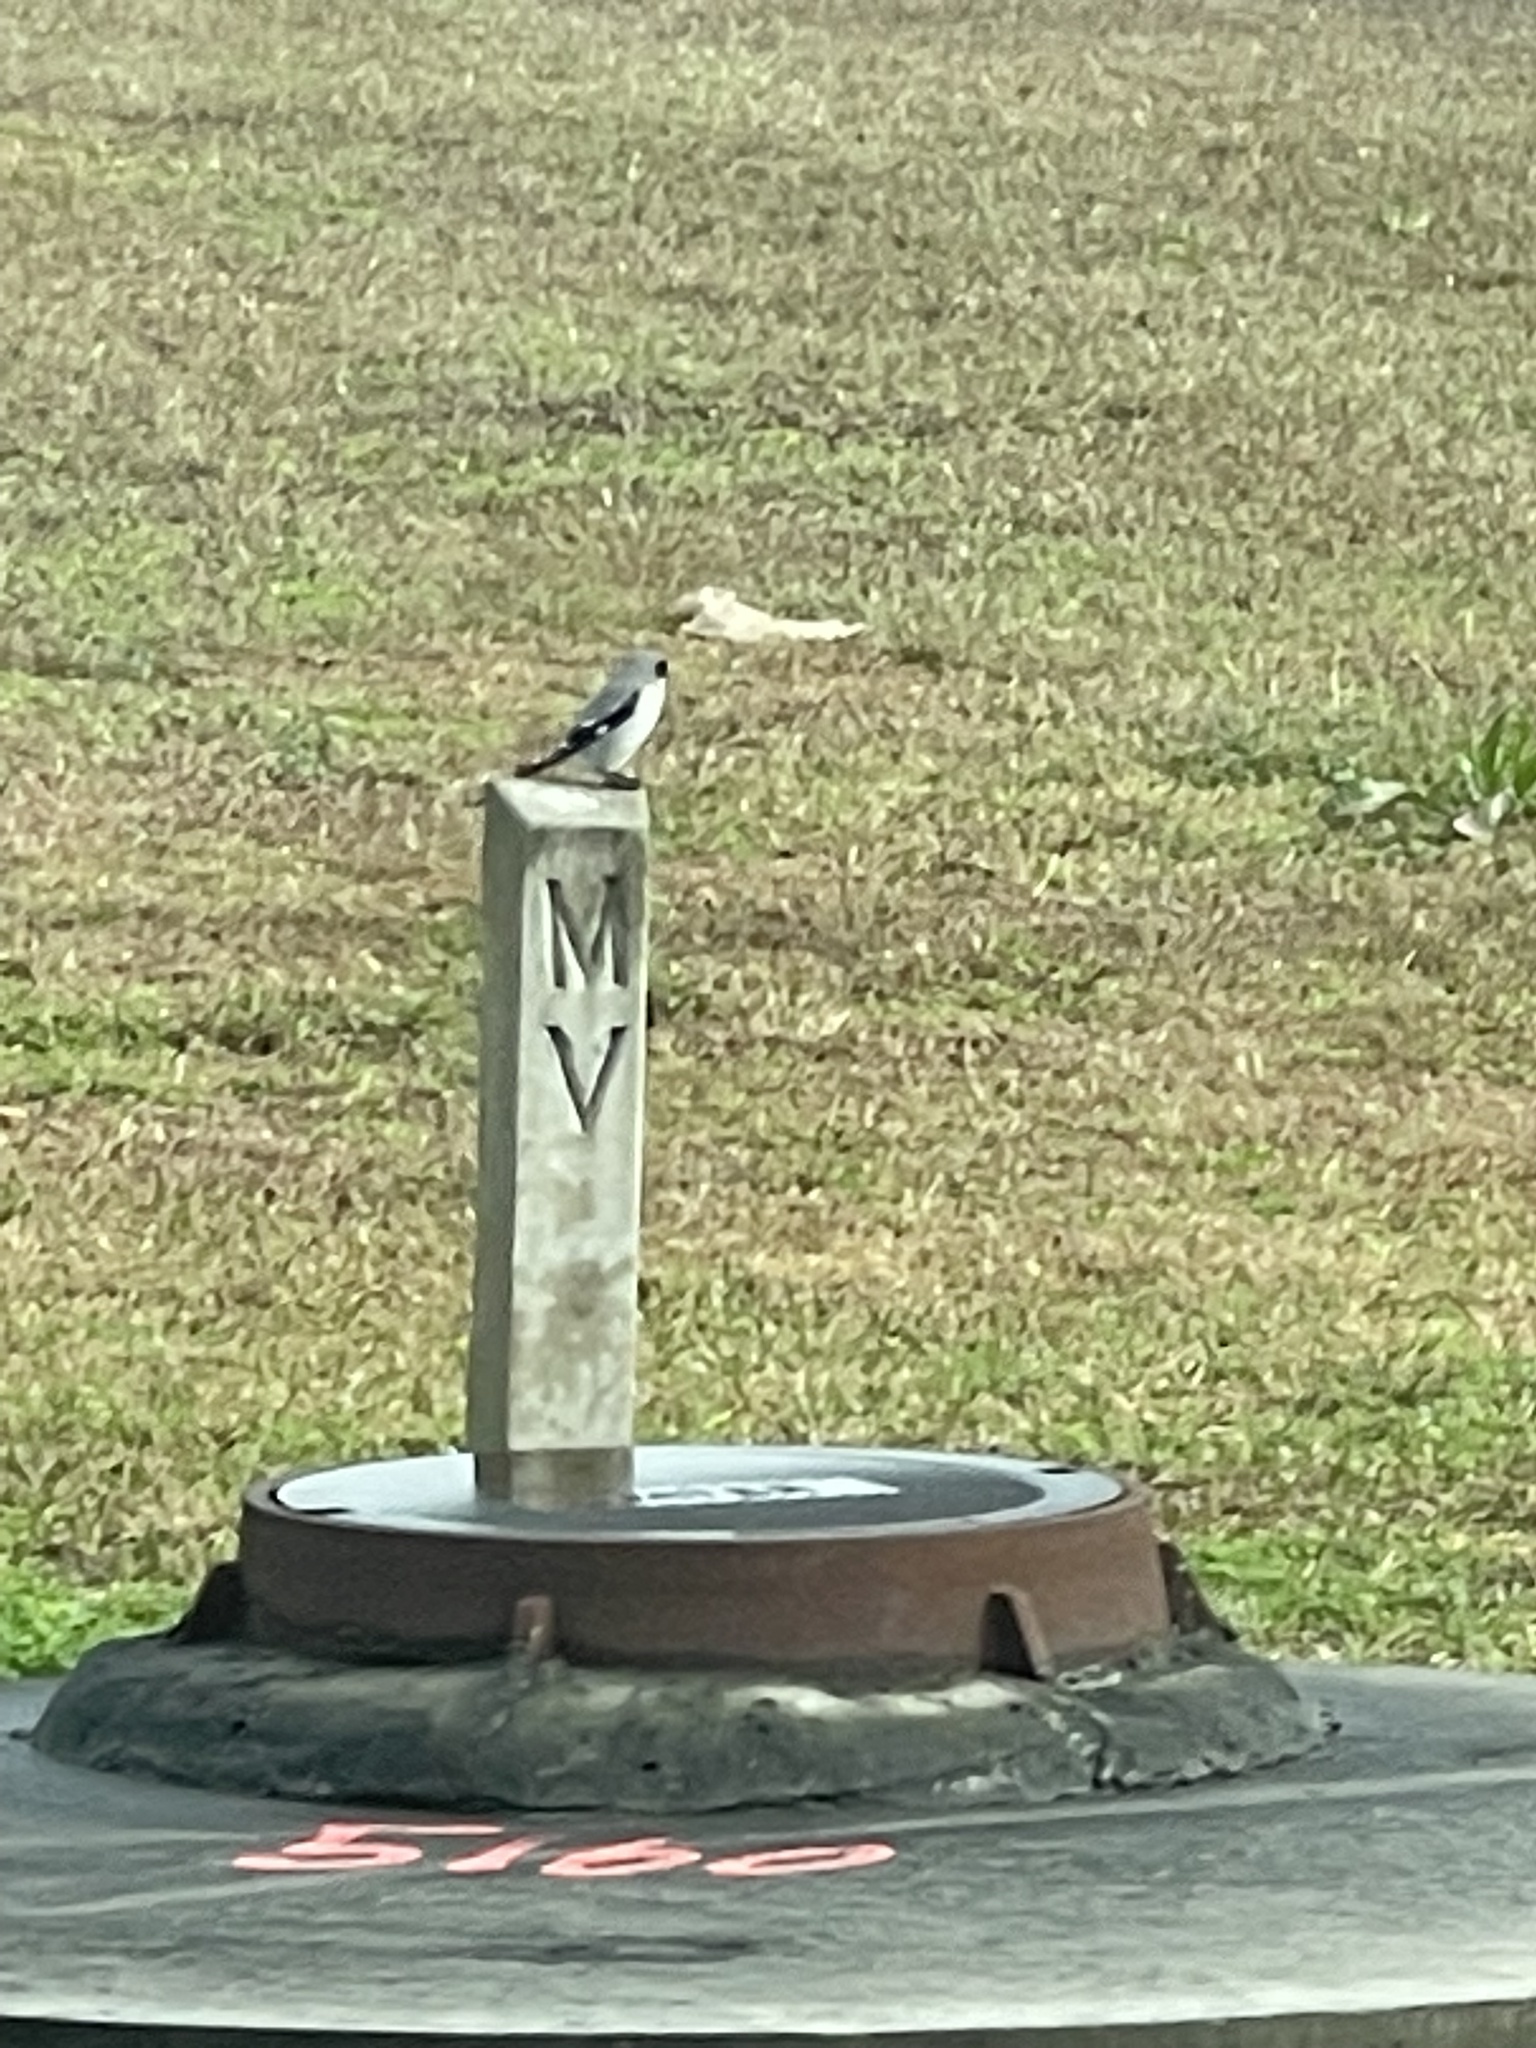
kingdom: Animalia
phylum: Chordata
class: Aves
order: Passeriformes
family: Laniidae
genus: Lanius
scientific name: Lanius ludovicianus
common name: Loggerhead shrike
